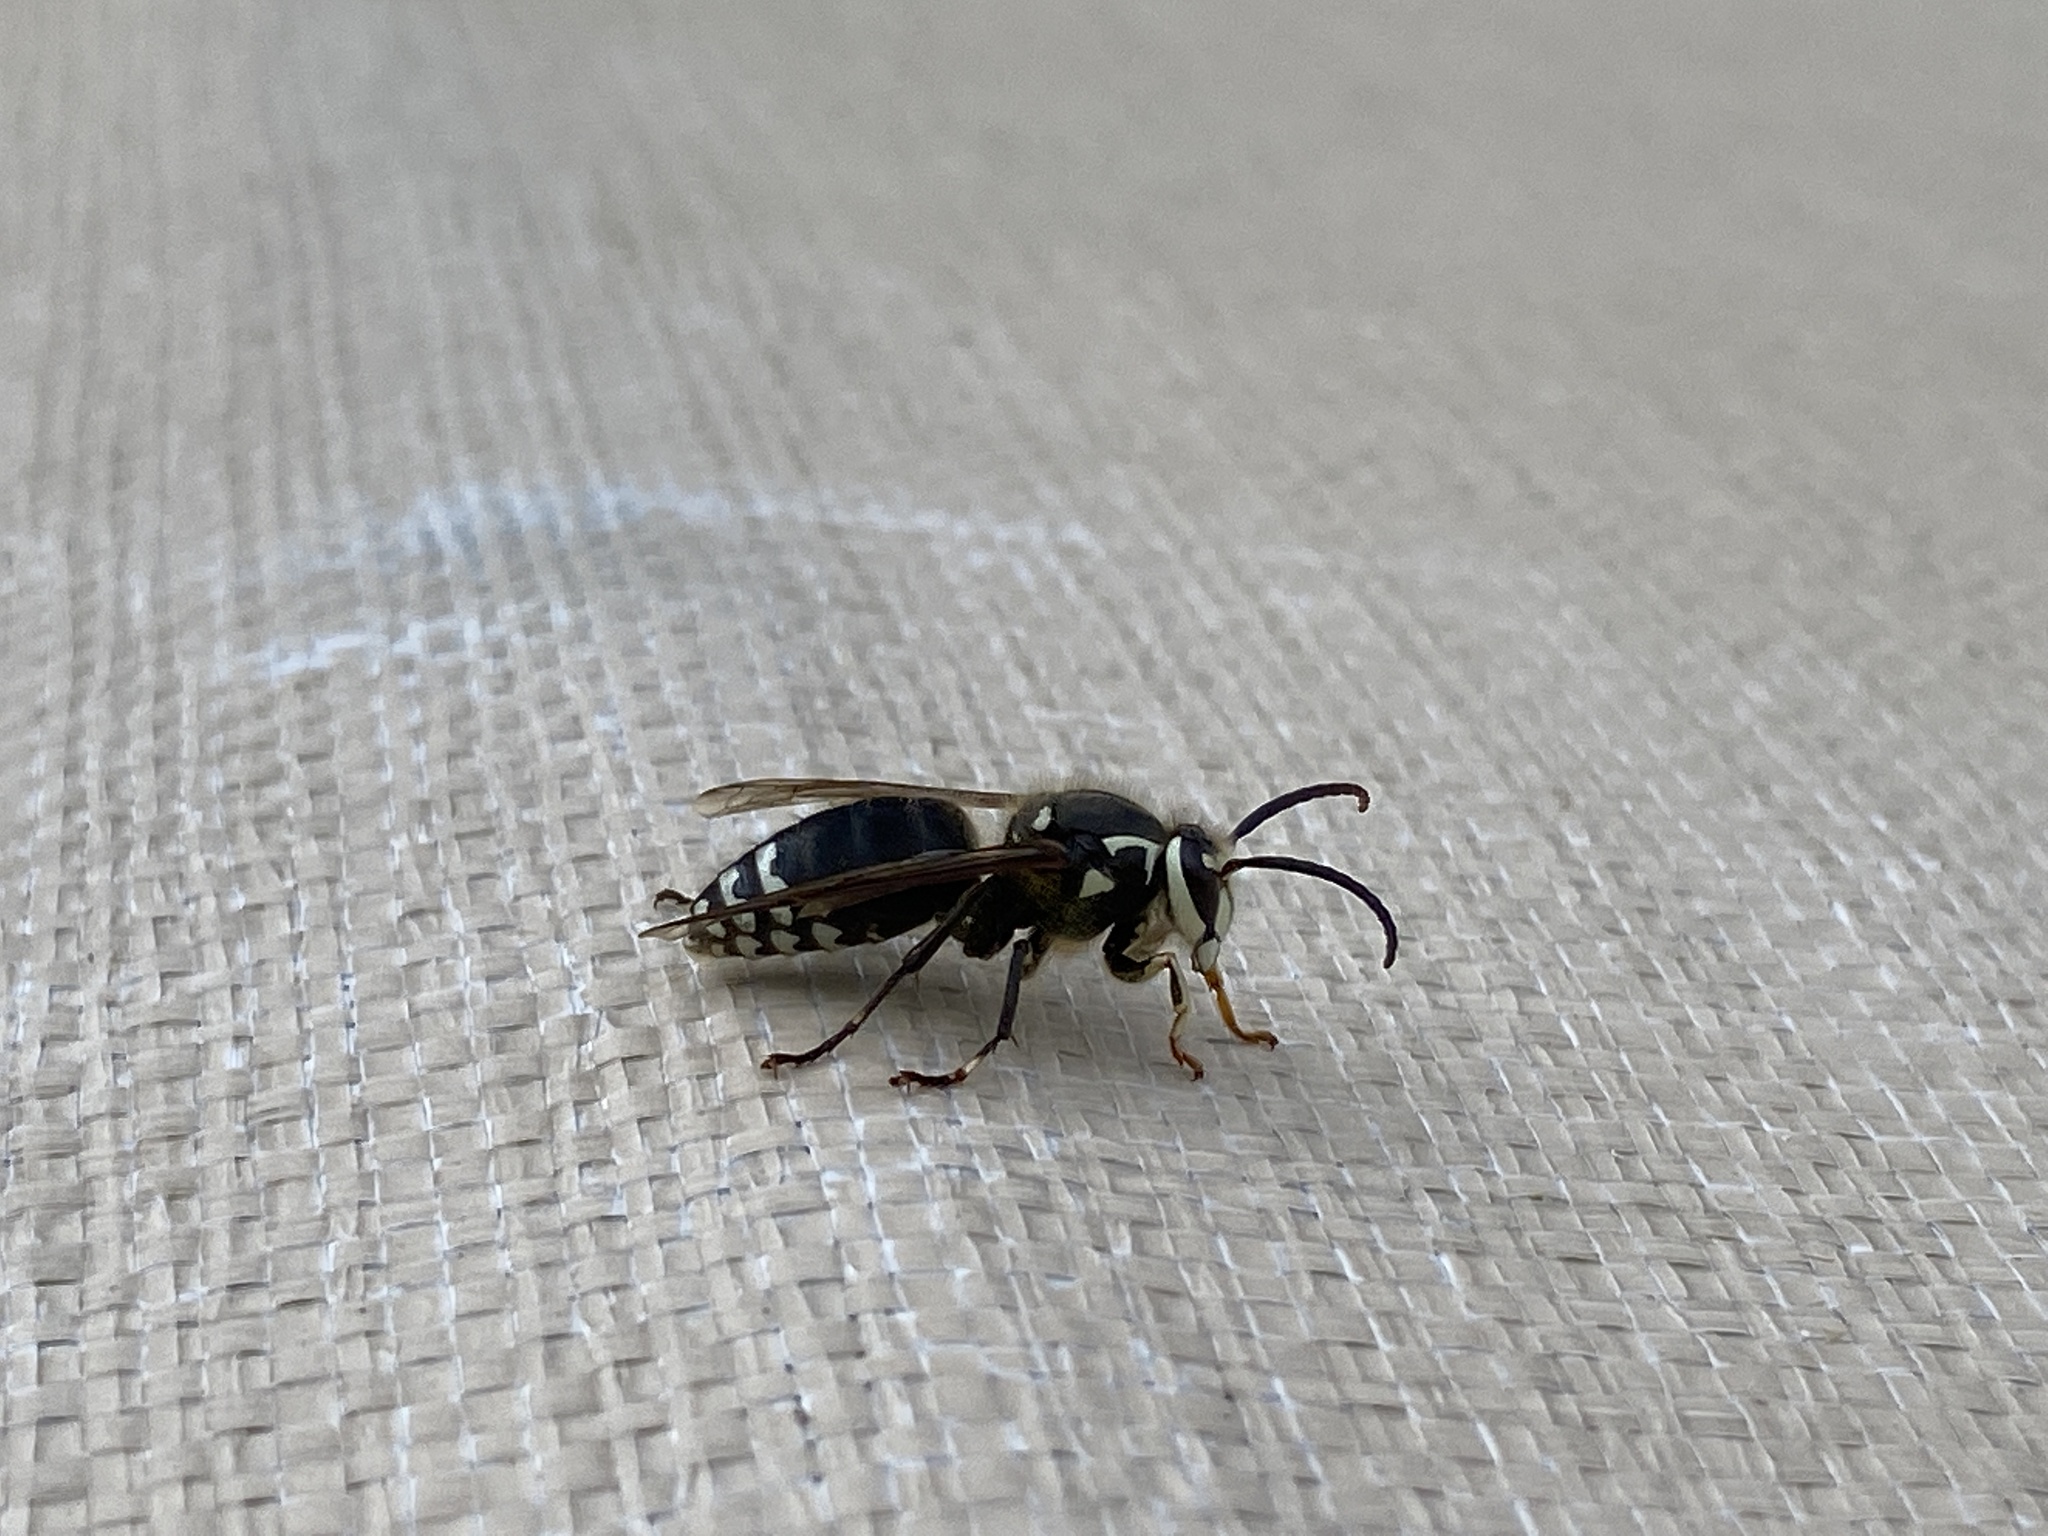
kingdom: Animalia
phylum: Arthropoda
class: Insecta
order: Hymenoptera
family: Vespidae
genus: Dolichovespula
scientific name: Dolichovespula maculata
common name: Bald-faced hornet
